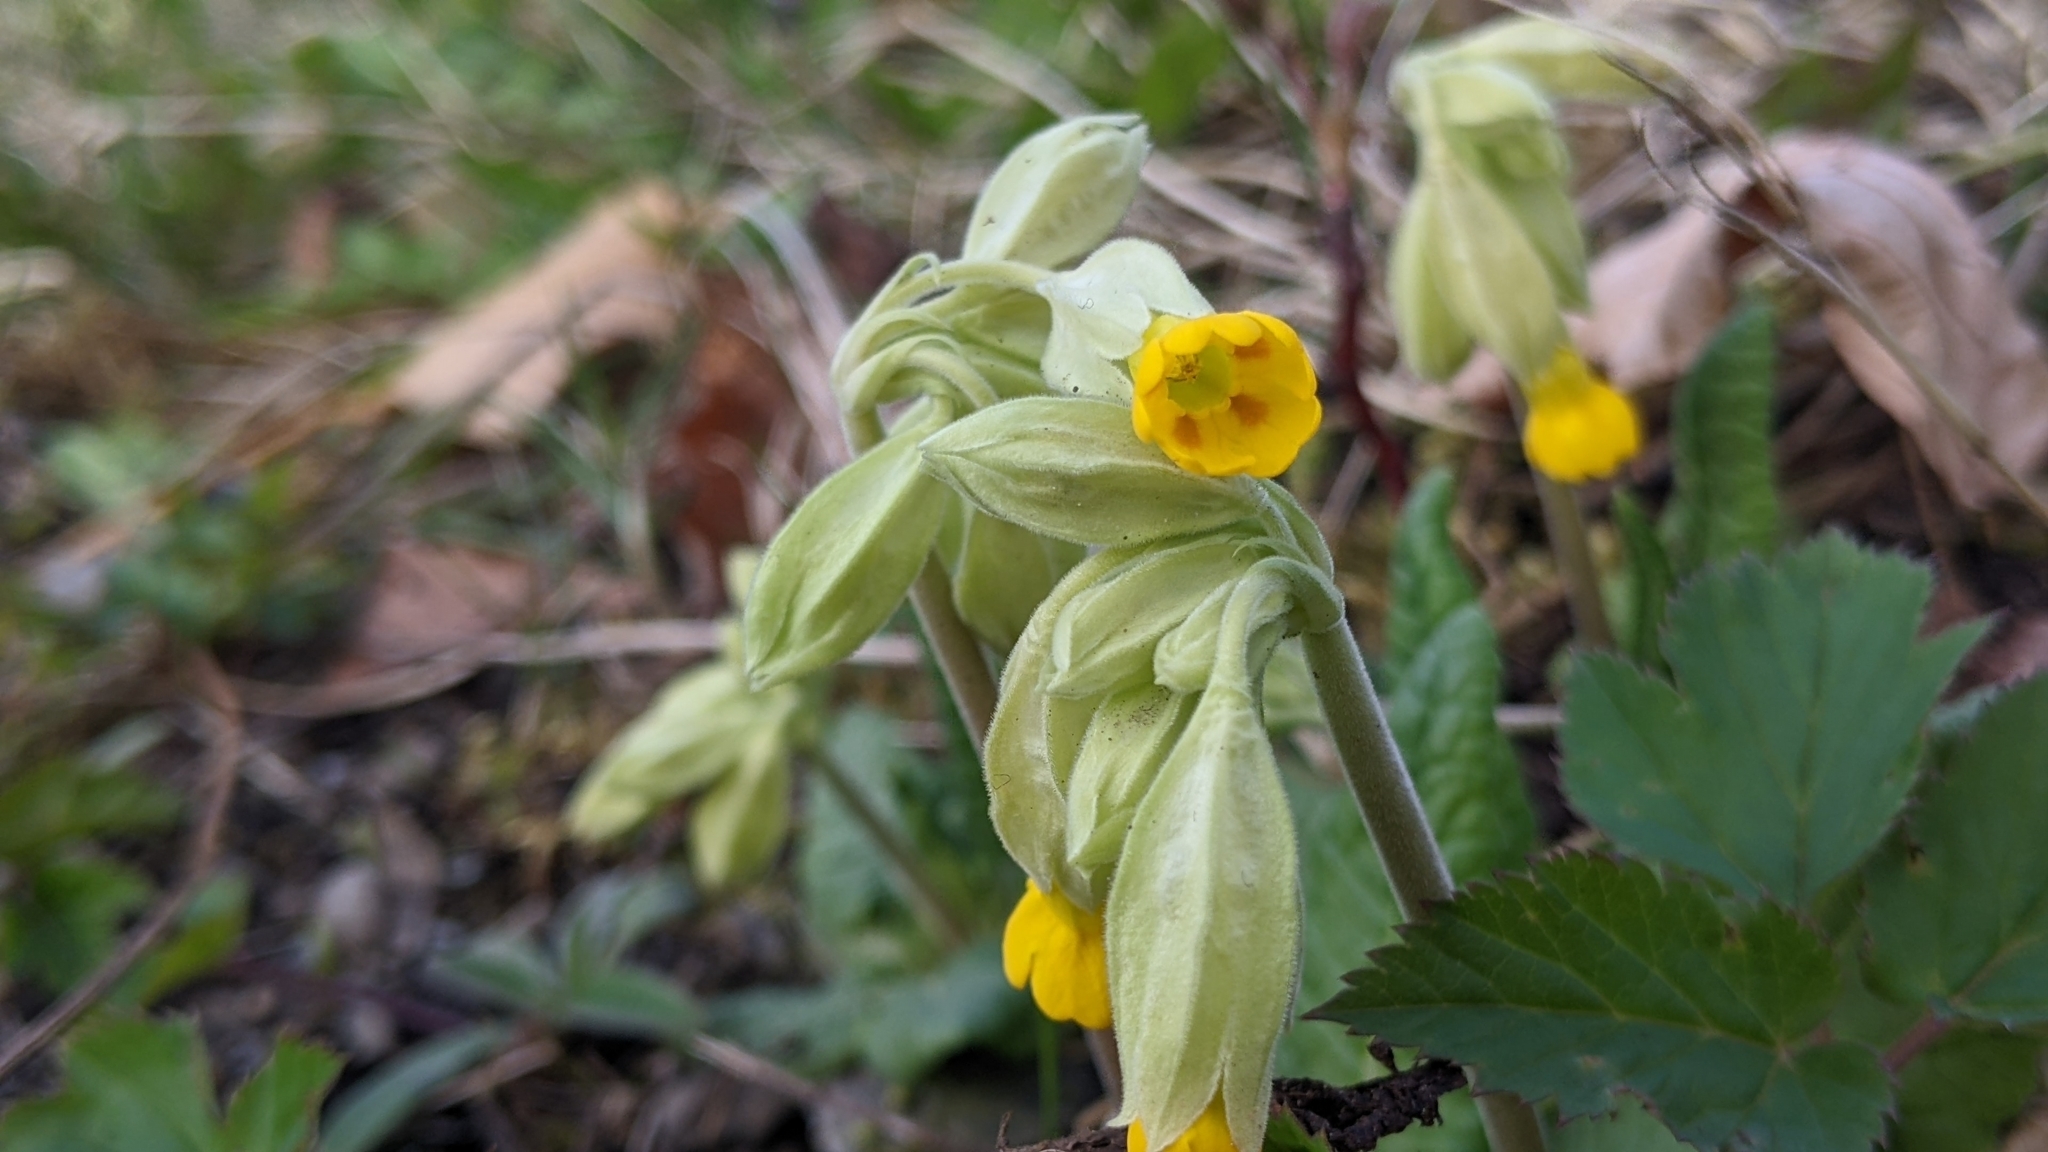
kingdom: Plantae
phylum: Tracheophyta
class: Magnoliopsida
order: Ericales
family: Primulaceae
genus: Primula
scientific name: Primula veris
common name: Cowslip
